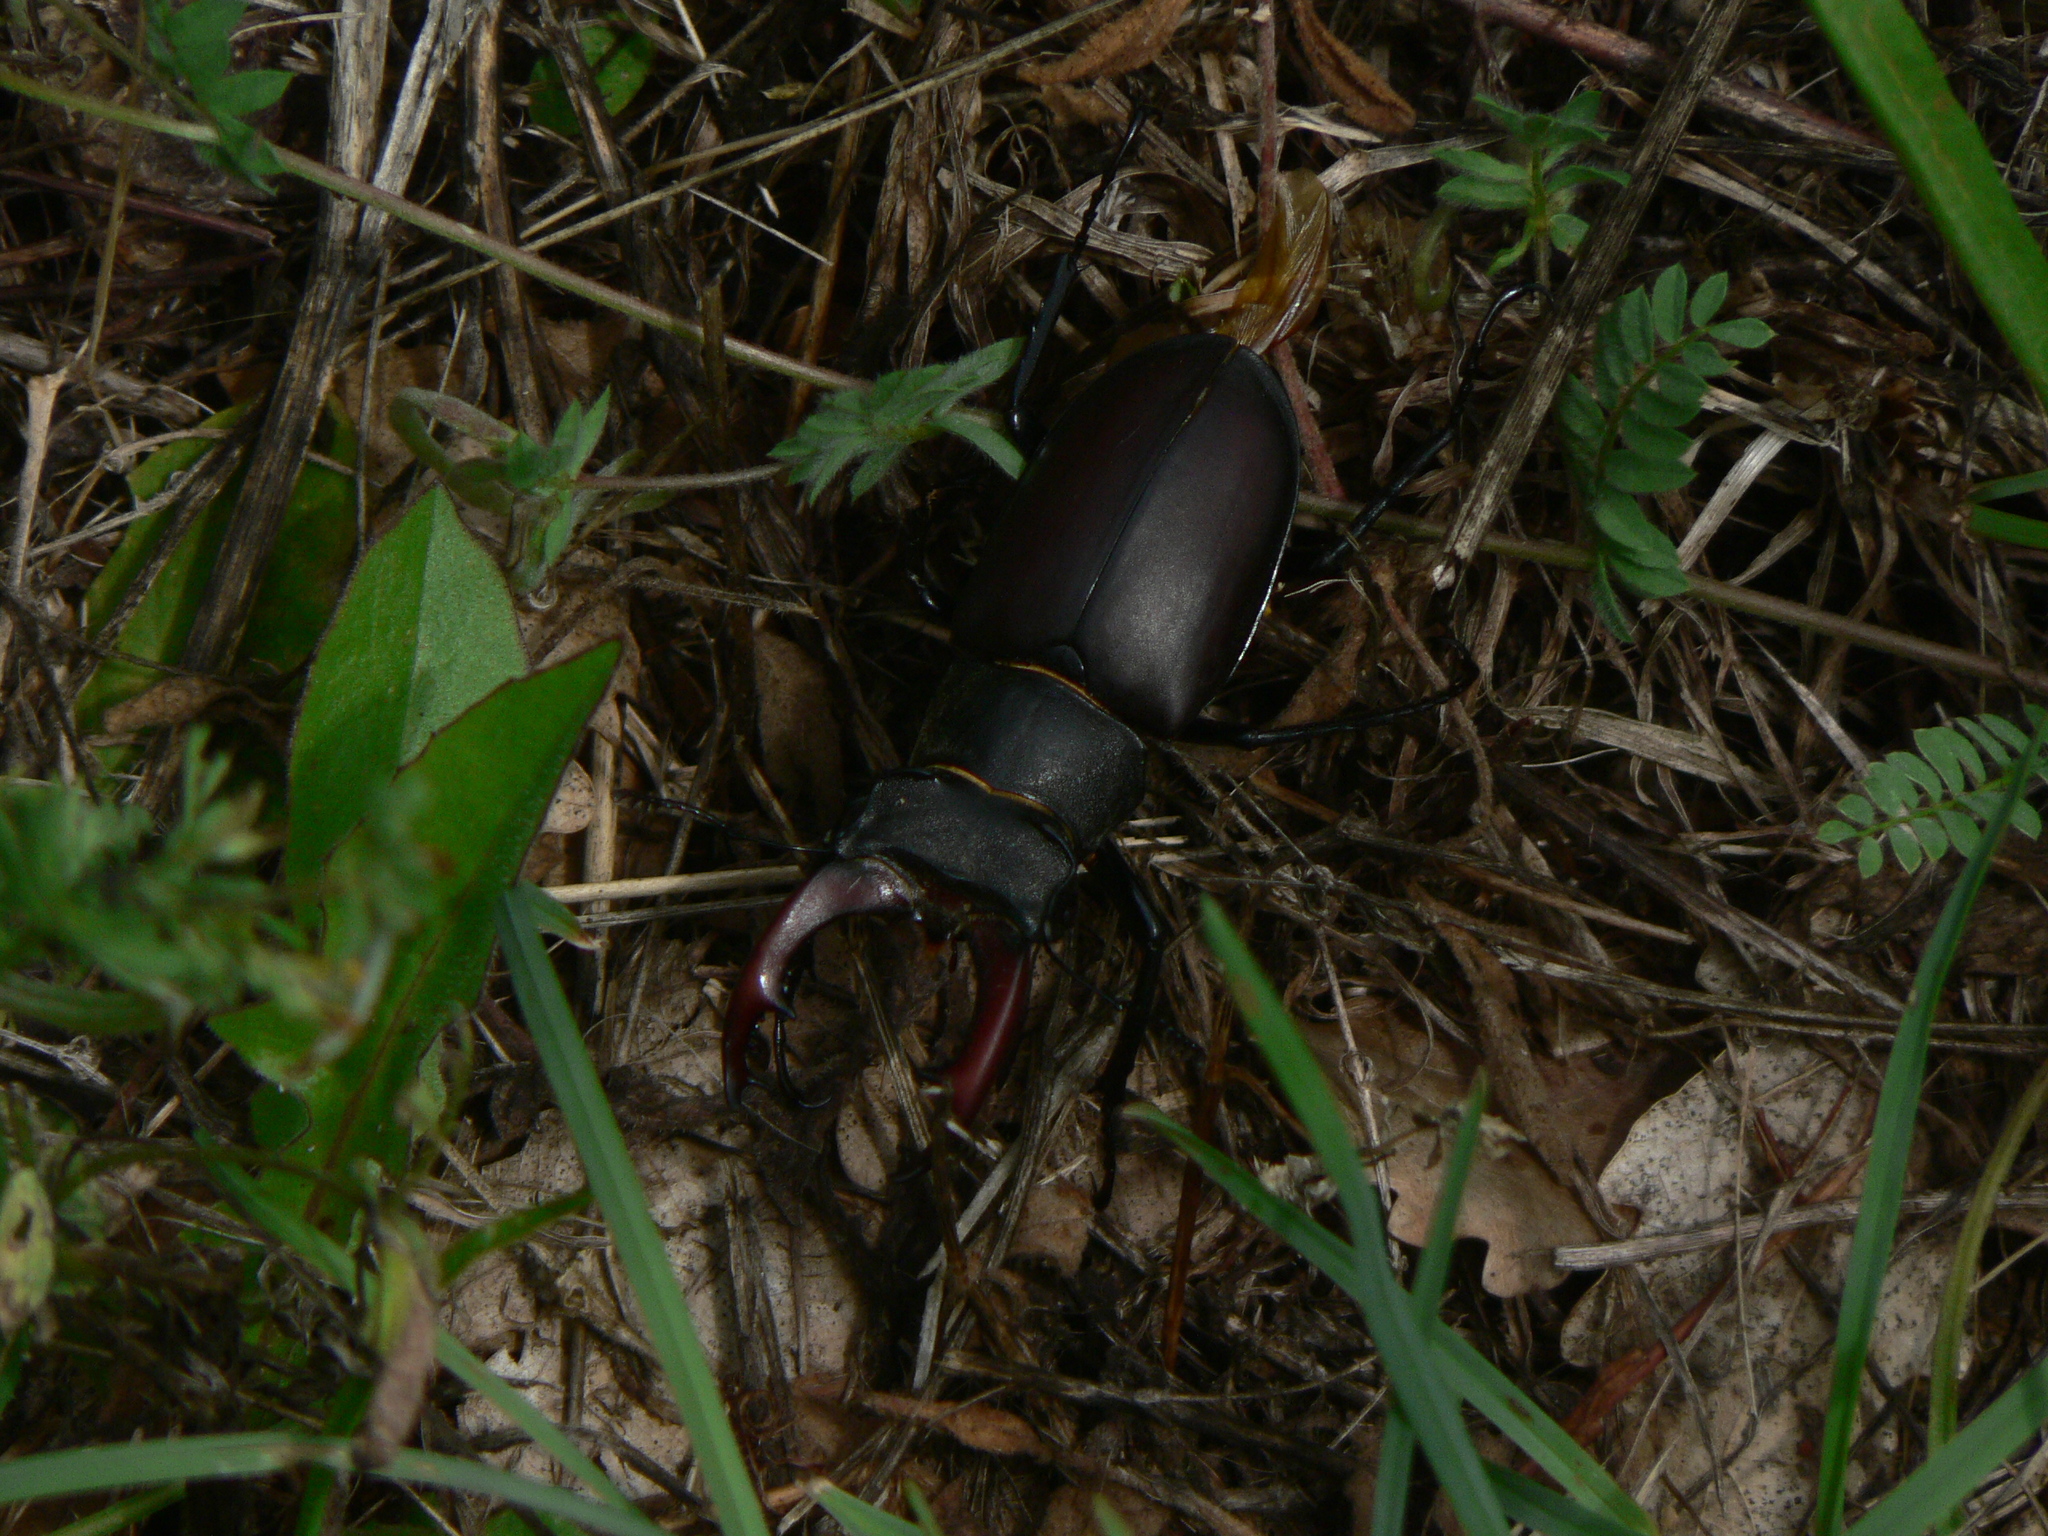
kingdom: Animalia
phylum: Arthropoda
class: Insecta
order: Coleoptera
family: Lucanidae
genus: Lucanus
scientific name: Lucanus cervus
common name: Stag beetle
